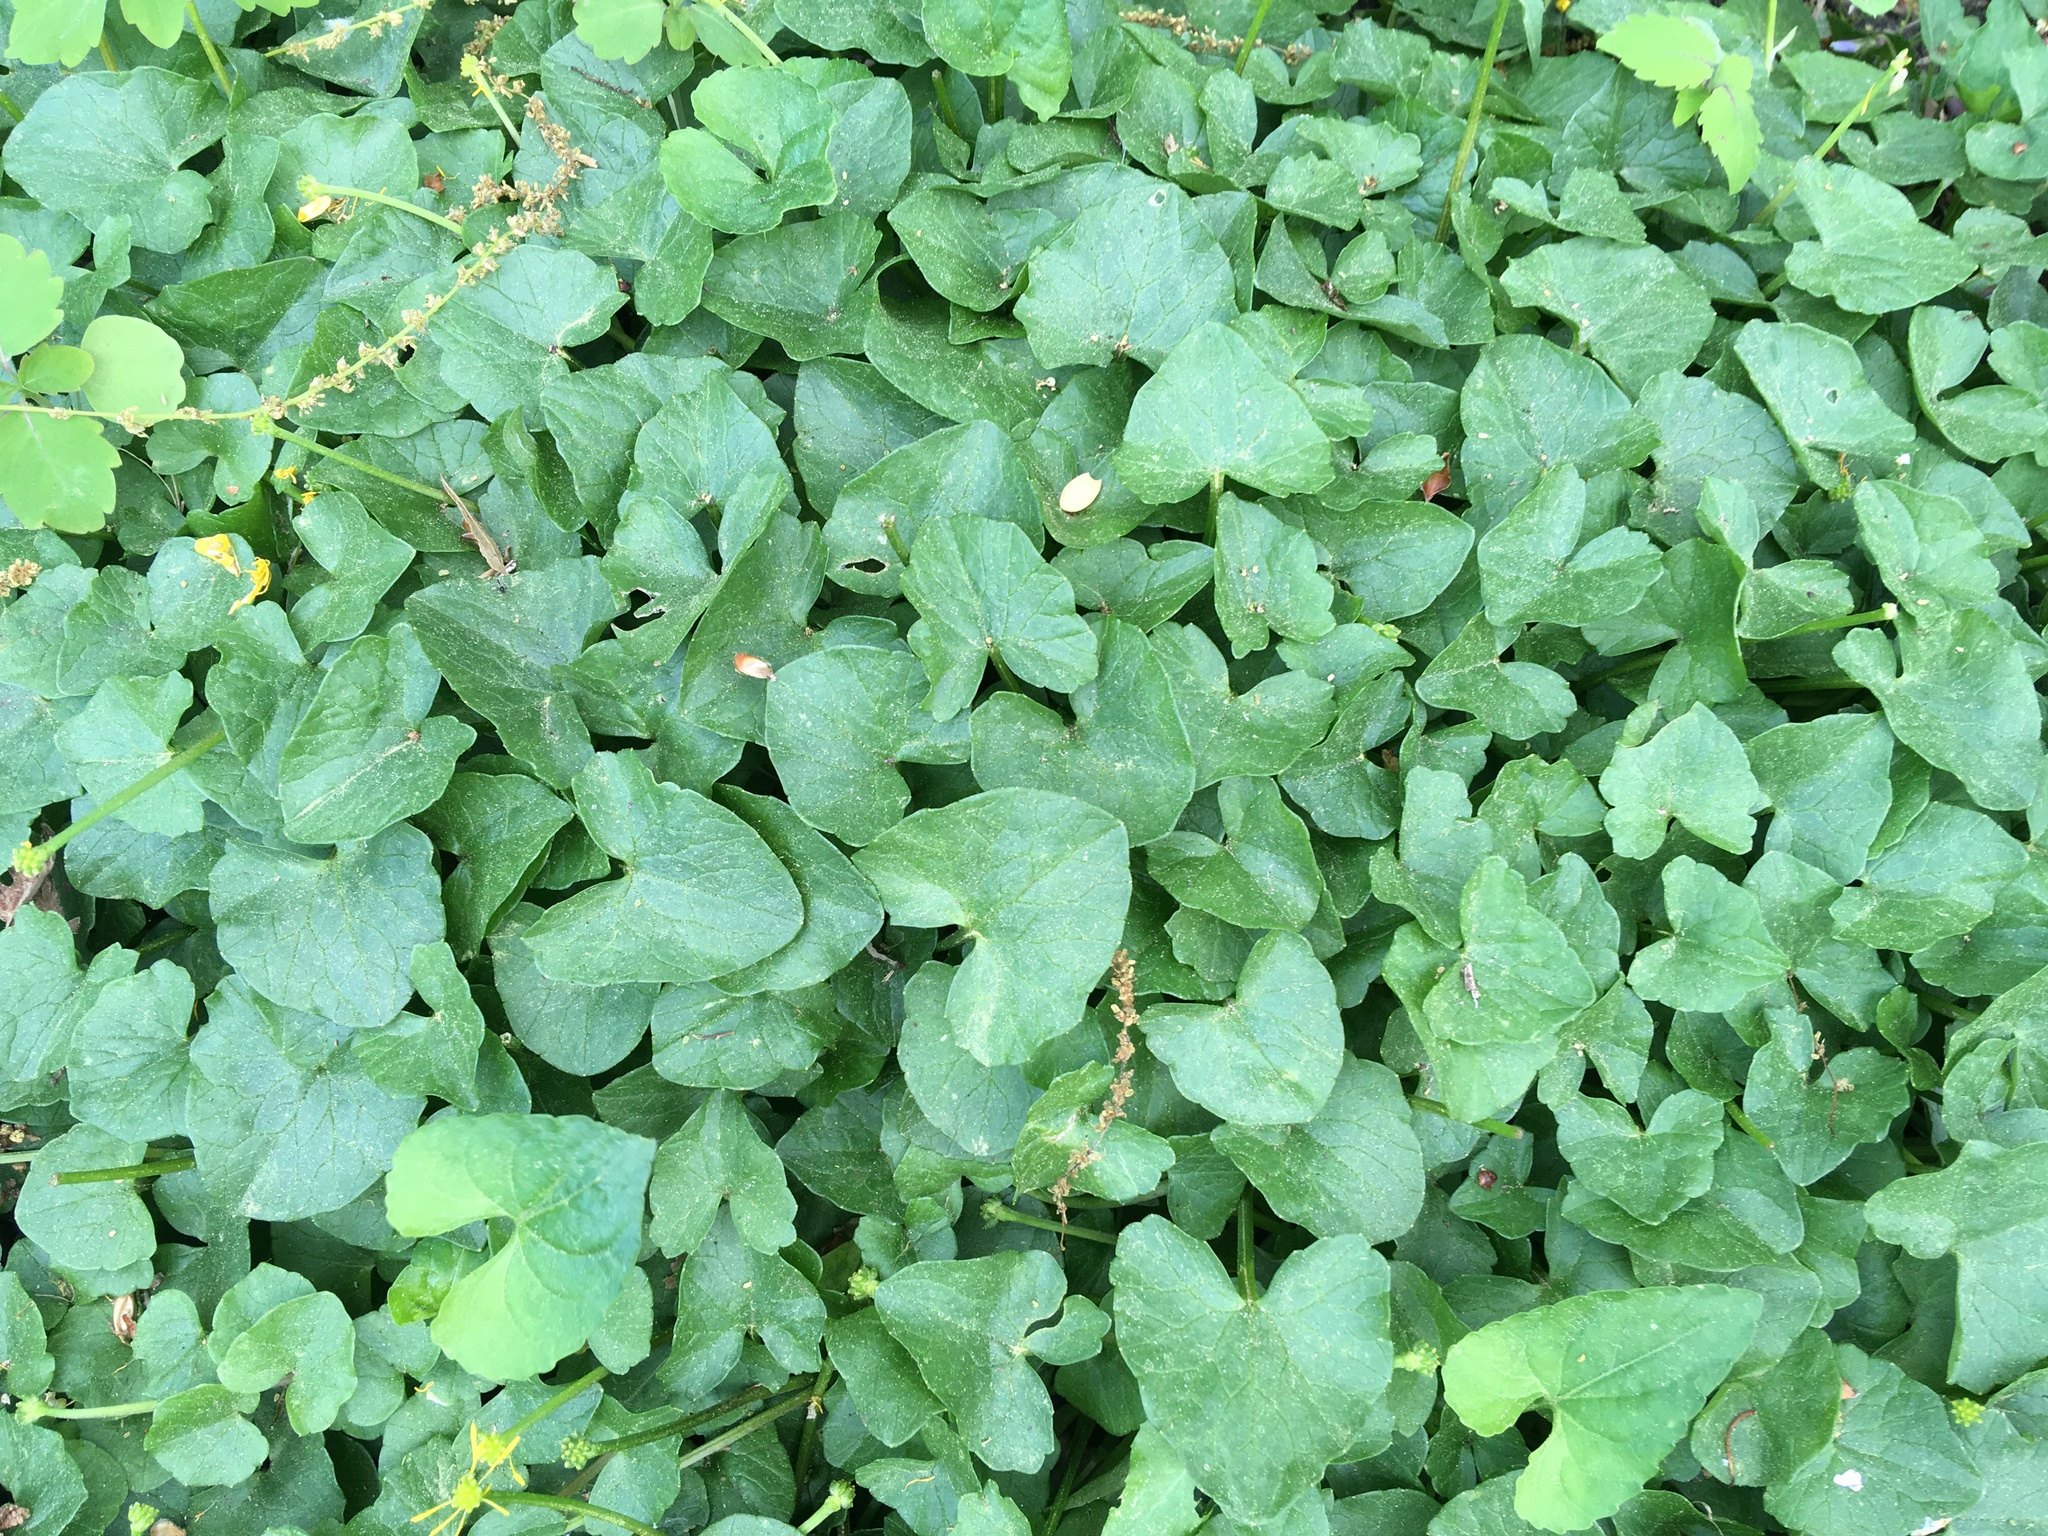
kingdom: Plantae
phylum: Tracheophyta
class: Magnoliopsida
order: Ranunculales
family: Ranunculaceae
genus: Ficaria
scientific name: Ficaria verna
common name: Lesser celandine
